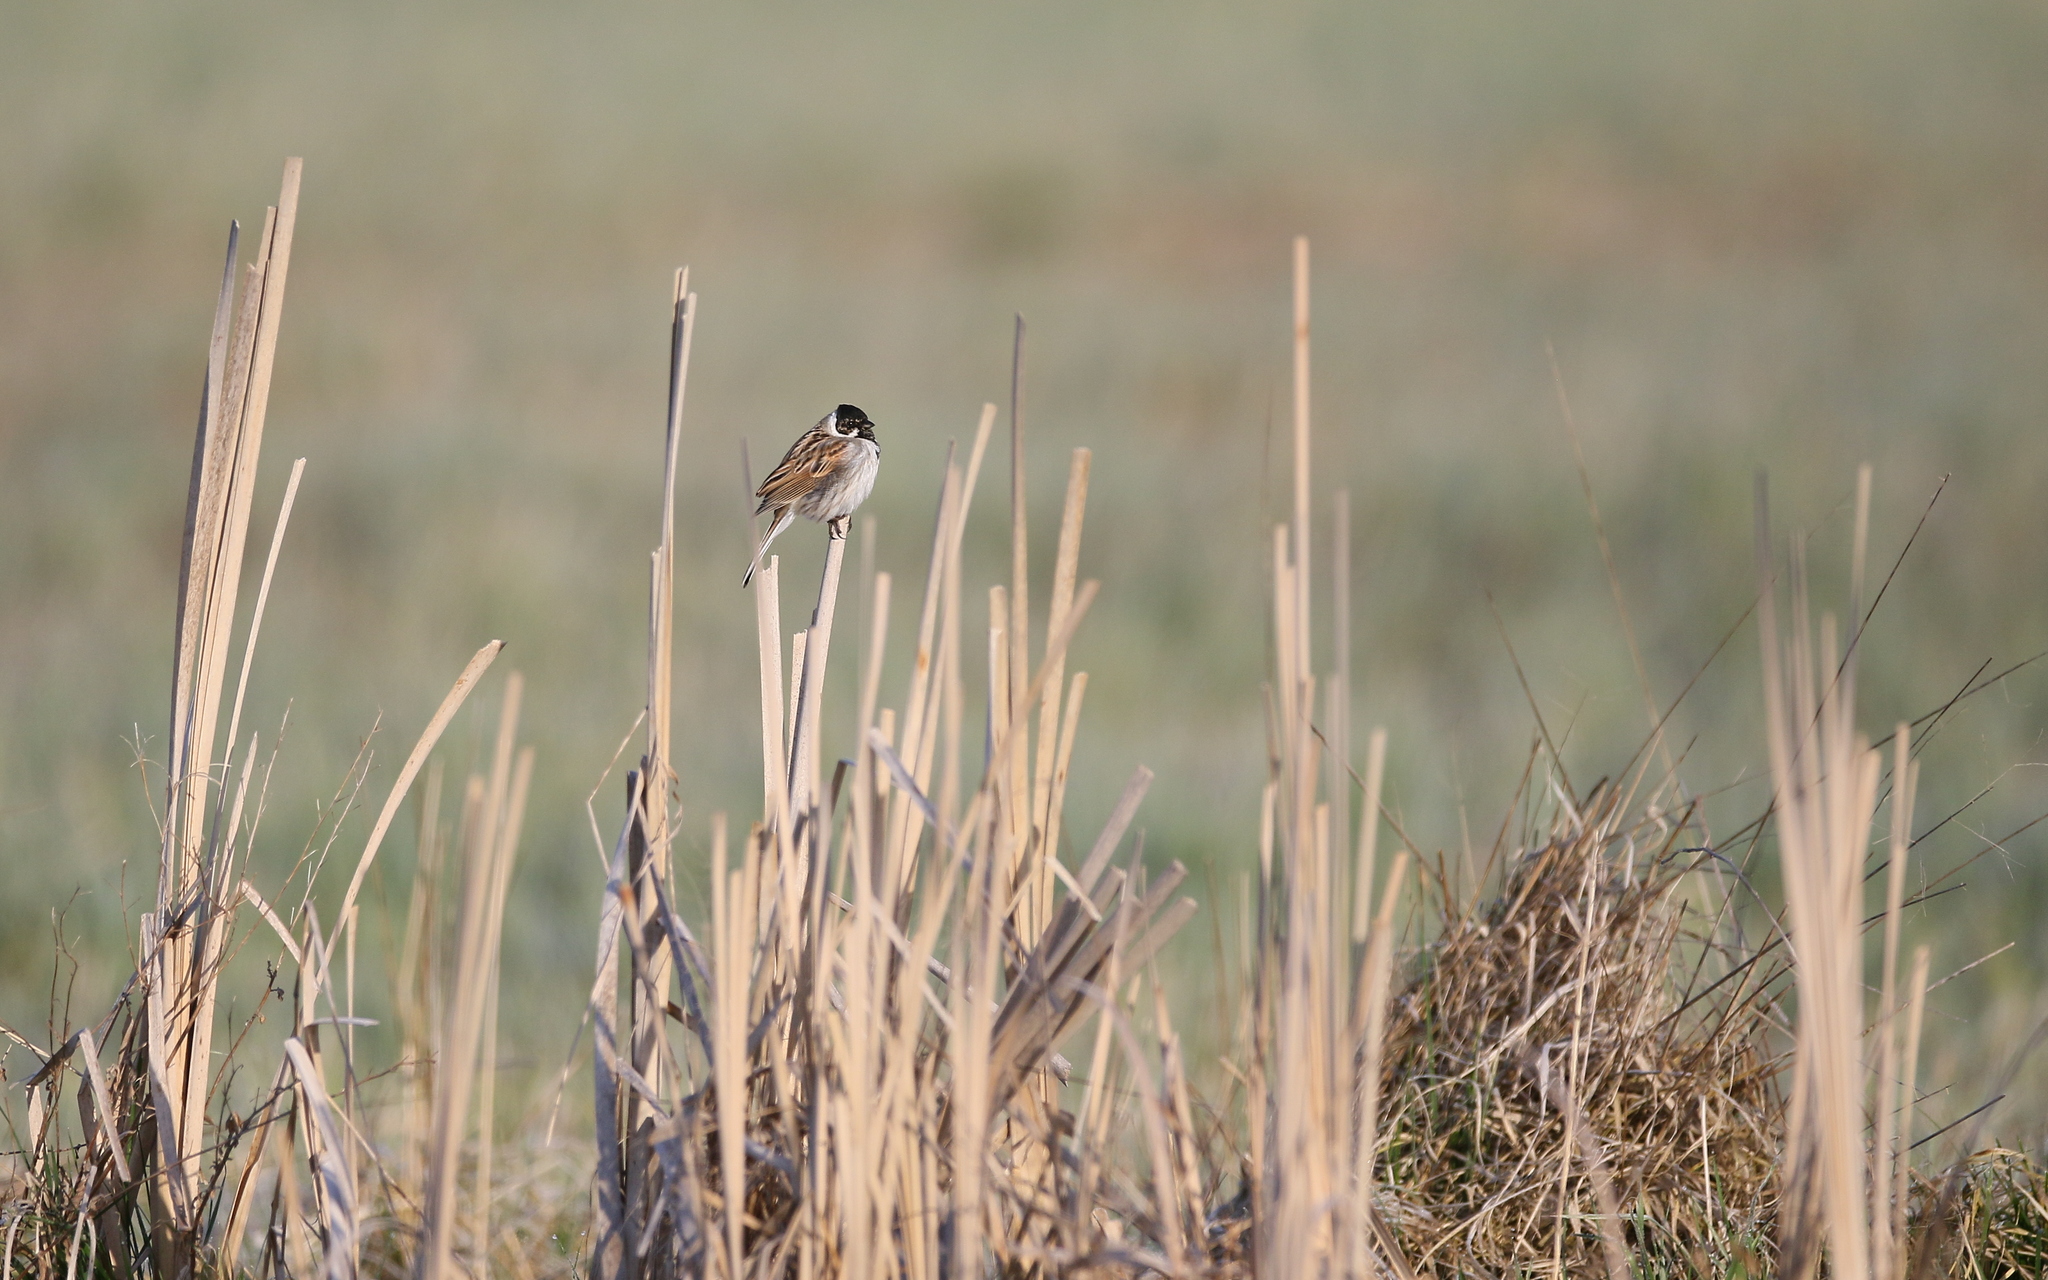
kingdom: Animalia
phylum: Chordata
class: Aves
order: Passeriformes
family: Emberizidae
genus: Emberiza
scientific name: Emberiza schoeniclus
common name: Reed bunting
